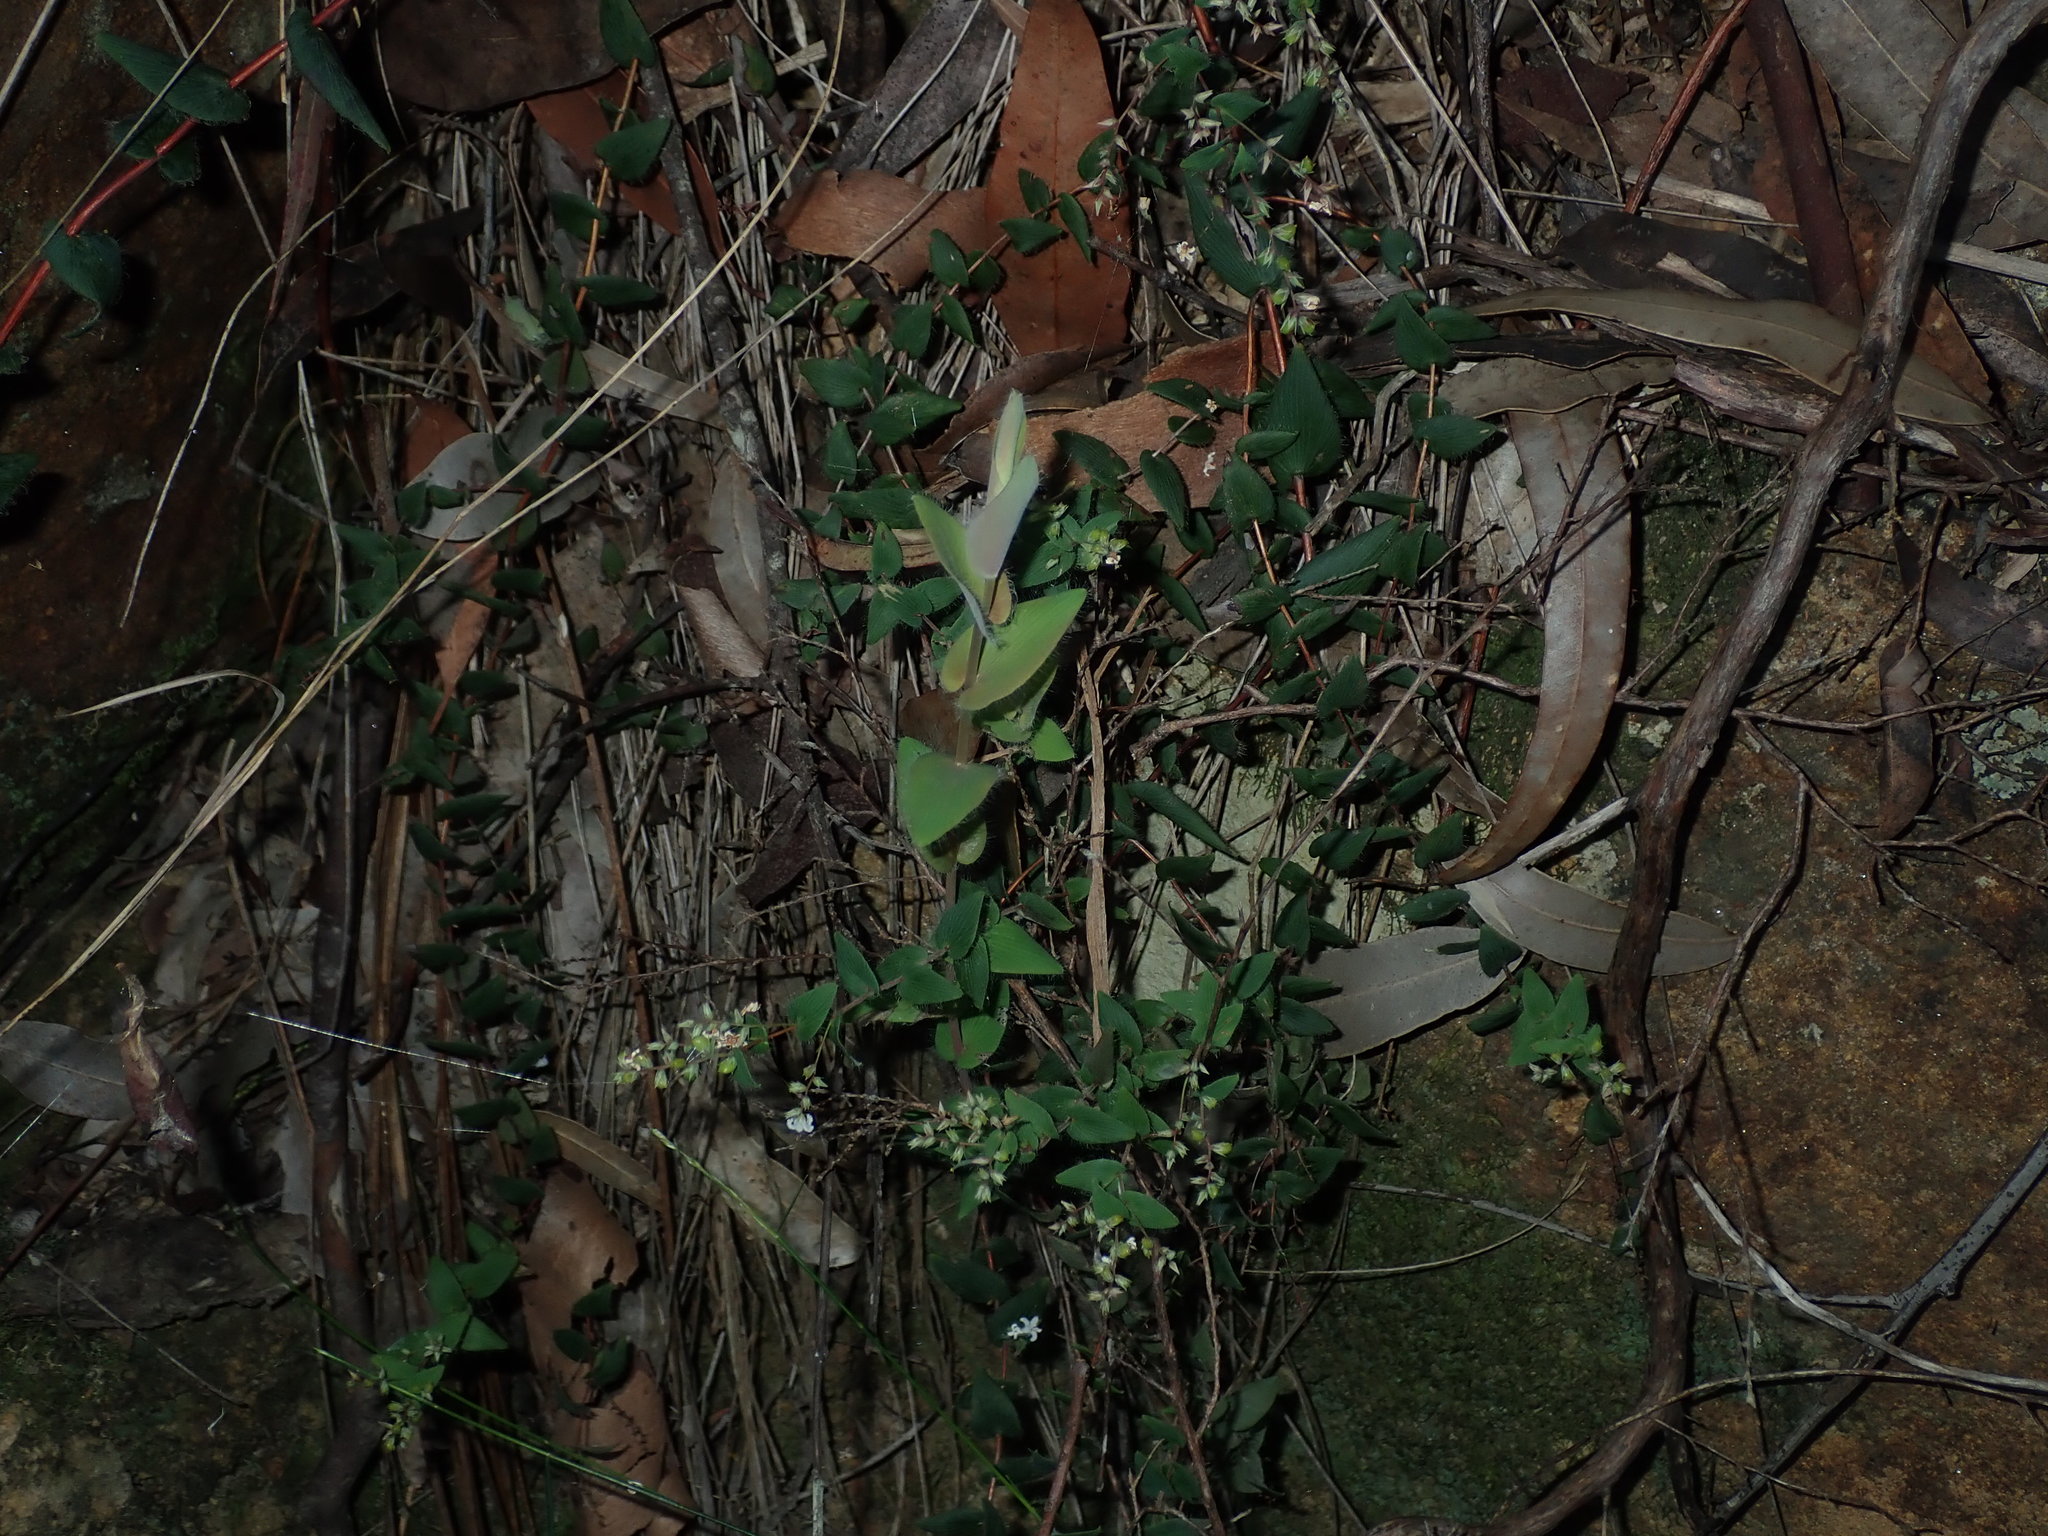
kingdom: Plantae
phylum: Tracheophyta
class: Magnoliopsida
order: Ericales
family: Ericaceae
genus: Leucopogon
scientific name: Leucopogon amplexicaulis
